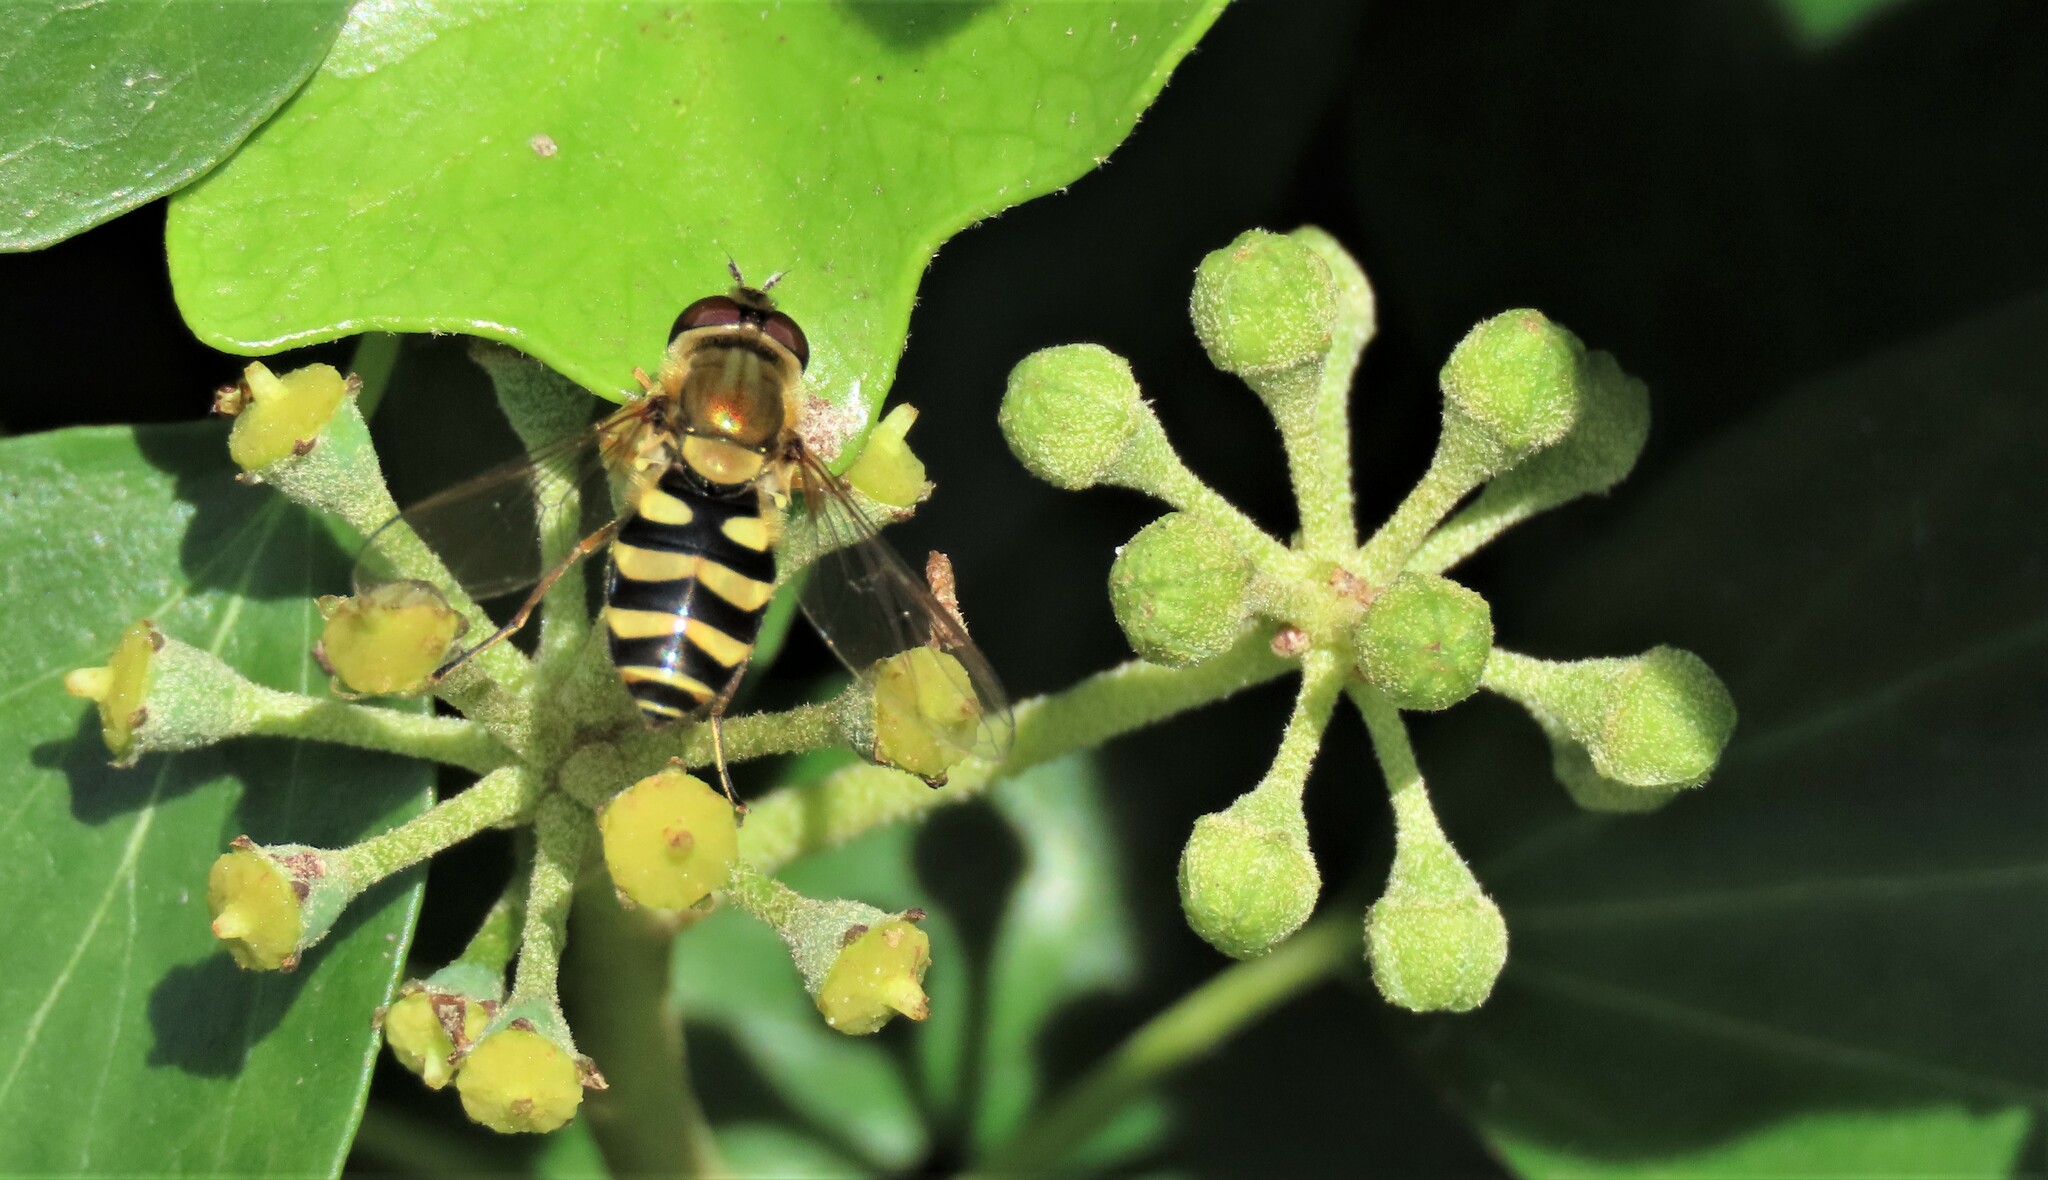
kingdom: Animalia
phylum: Arthropoda
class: Insecta
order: Diptera
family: Syrphidae
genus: Syrphus
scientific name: Syrphus
